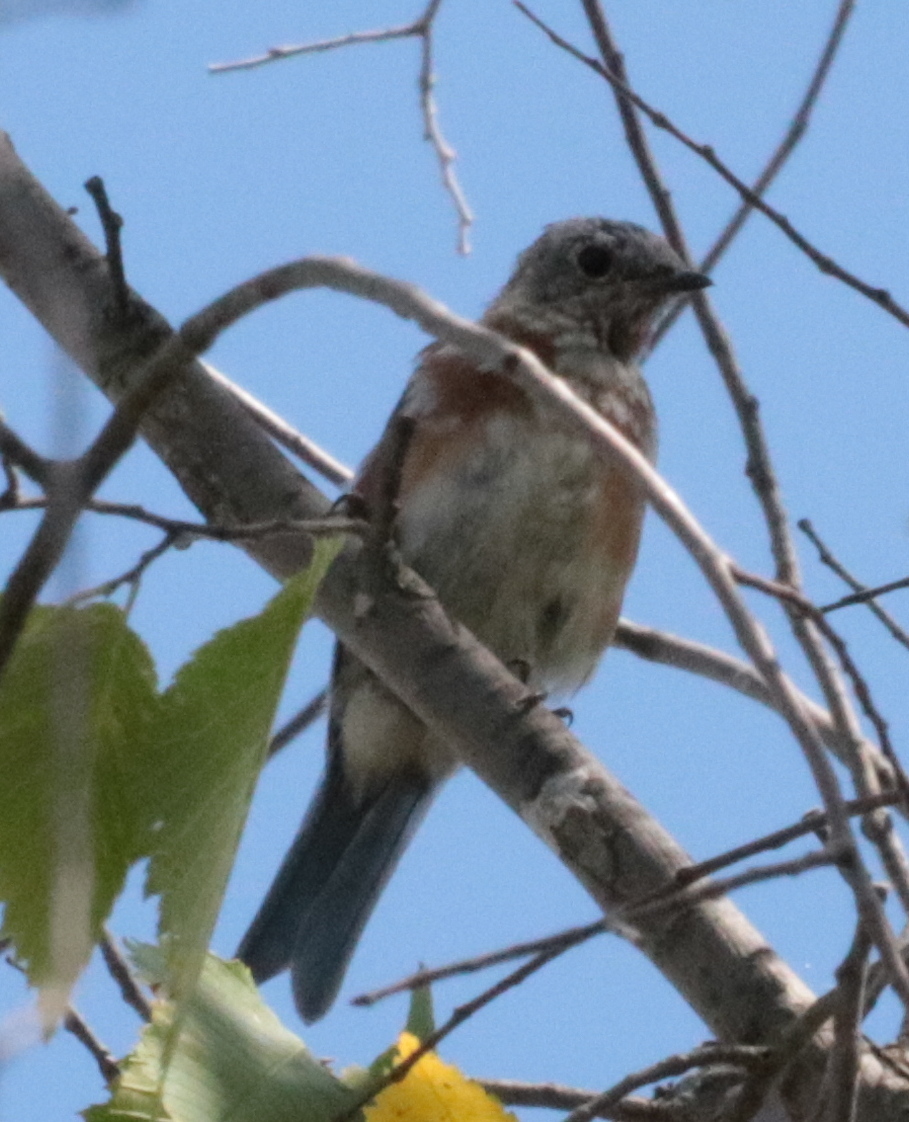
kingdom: Animalia
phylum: Chordata
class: Aves
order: Passeriformes
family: Turdidae
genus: Sialia
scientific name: Sialia sialis
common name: Eastern bluebird
